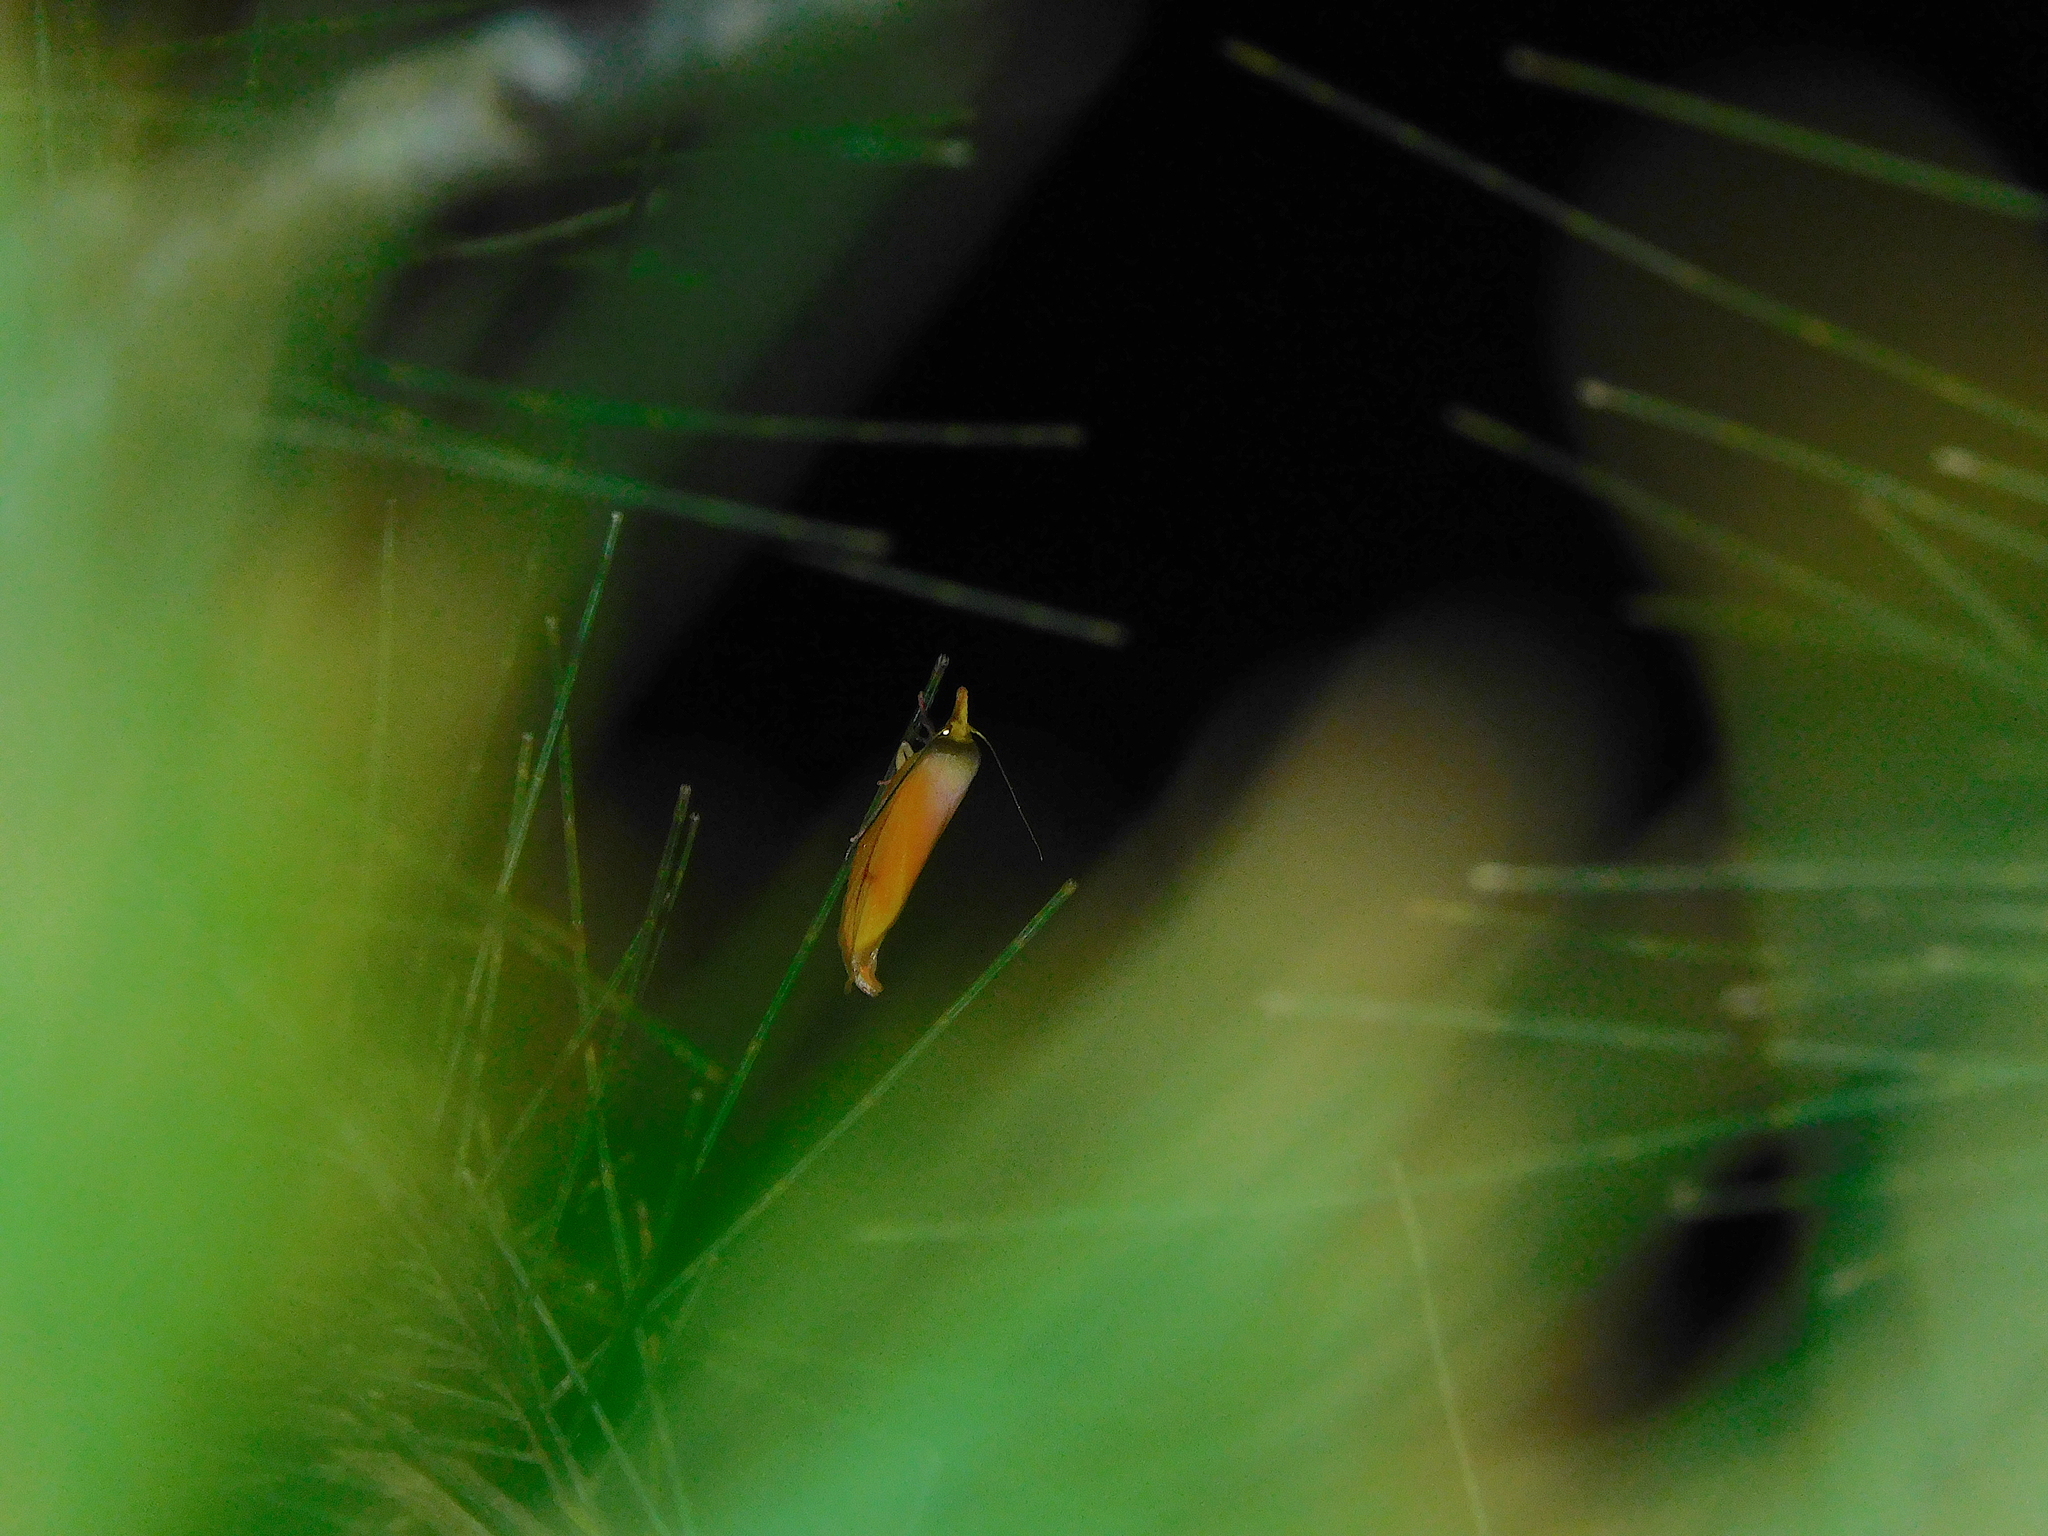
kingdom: Animalia
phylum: Arthropoda
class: Insecta
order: Lepidoptera
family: Oecophoridae
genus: Wingia
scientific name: Wingia aurata
